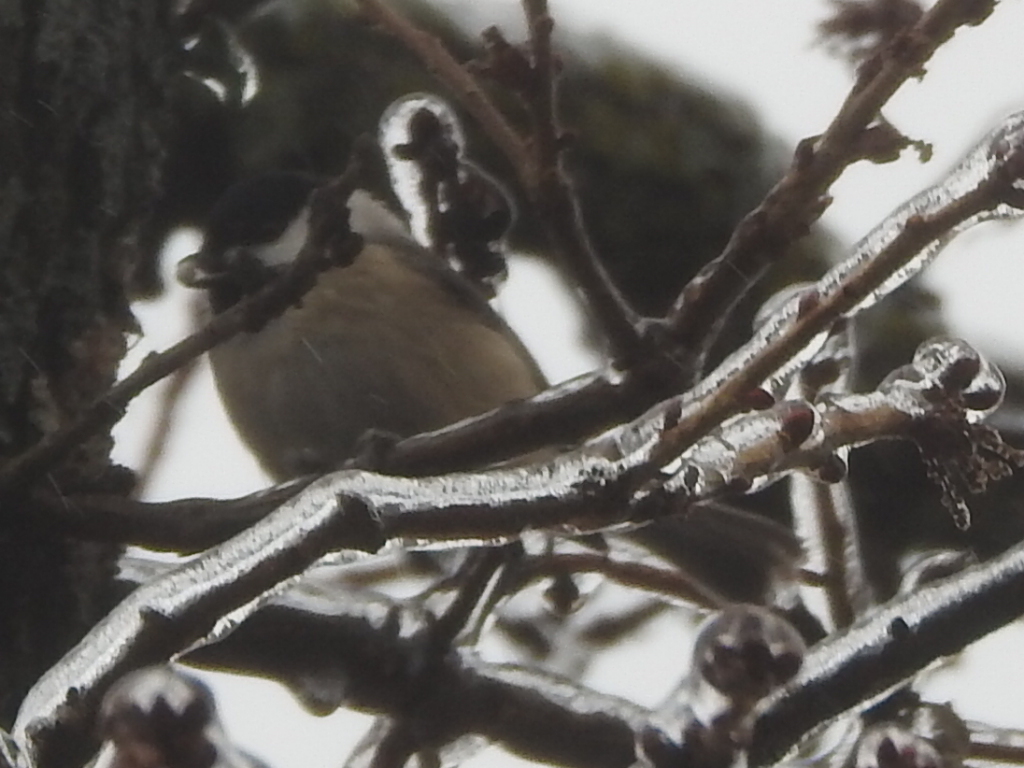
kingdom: Animalia
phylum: Chordata
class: Aves
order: Passeriformes
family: Paridae
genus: Poecile
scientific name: Poecile carolinensis
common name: Carolina chickadee
